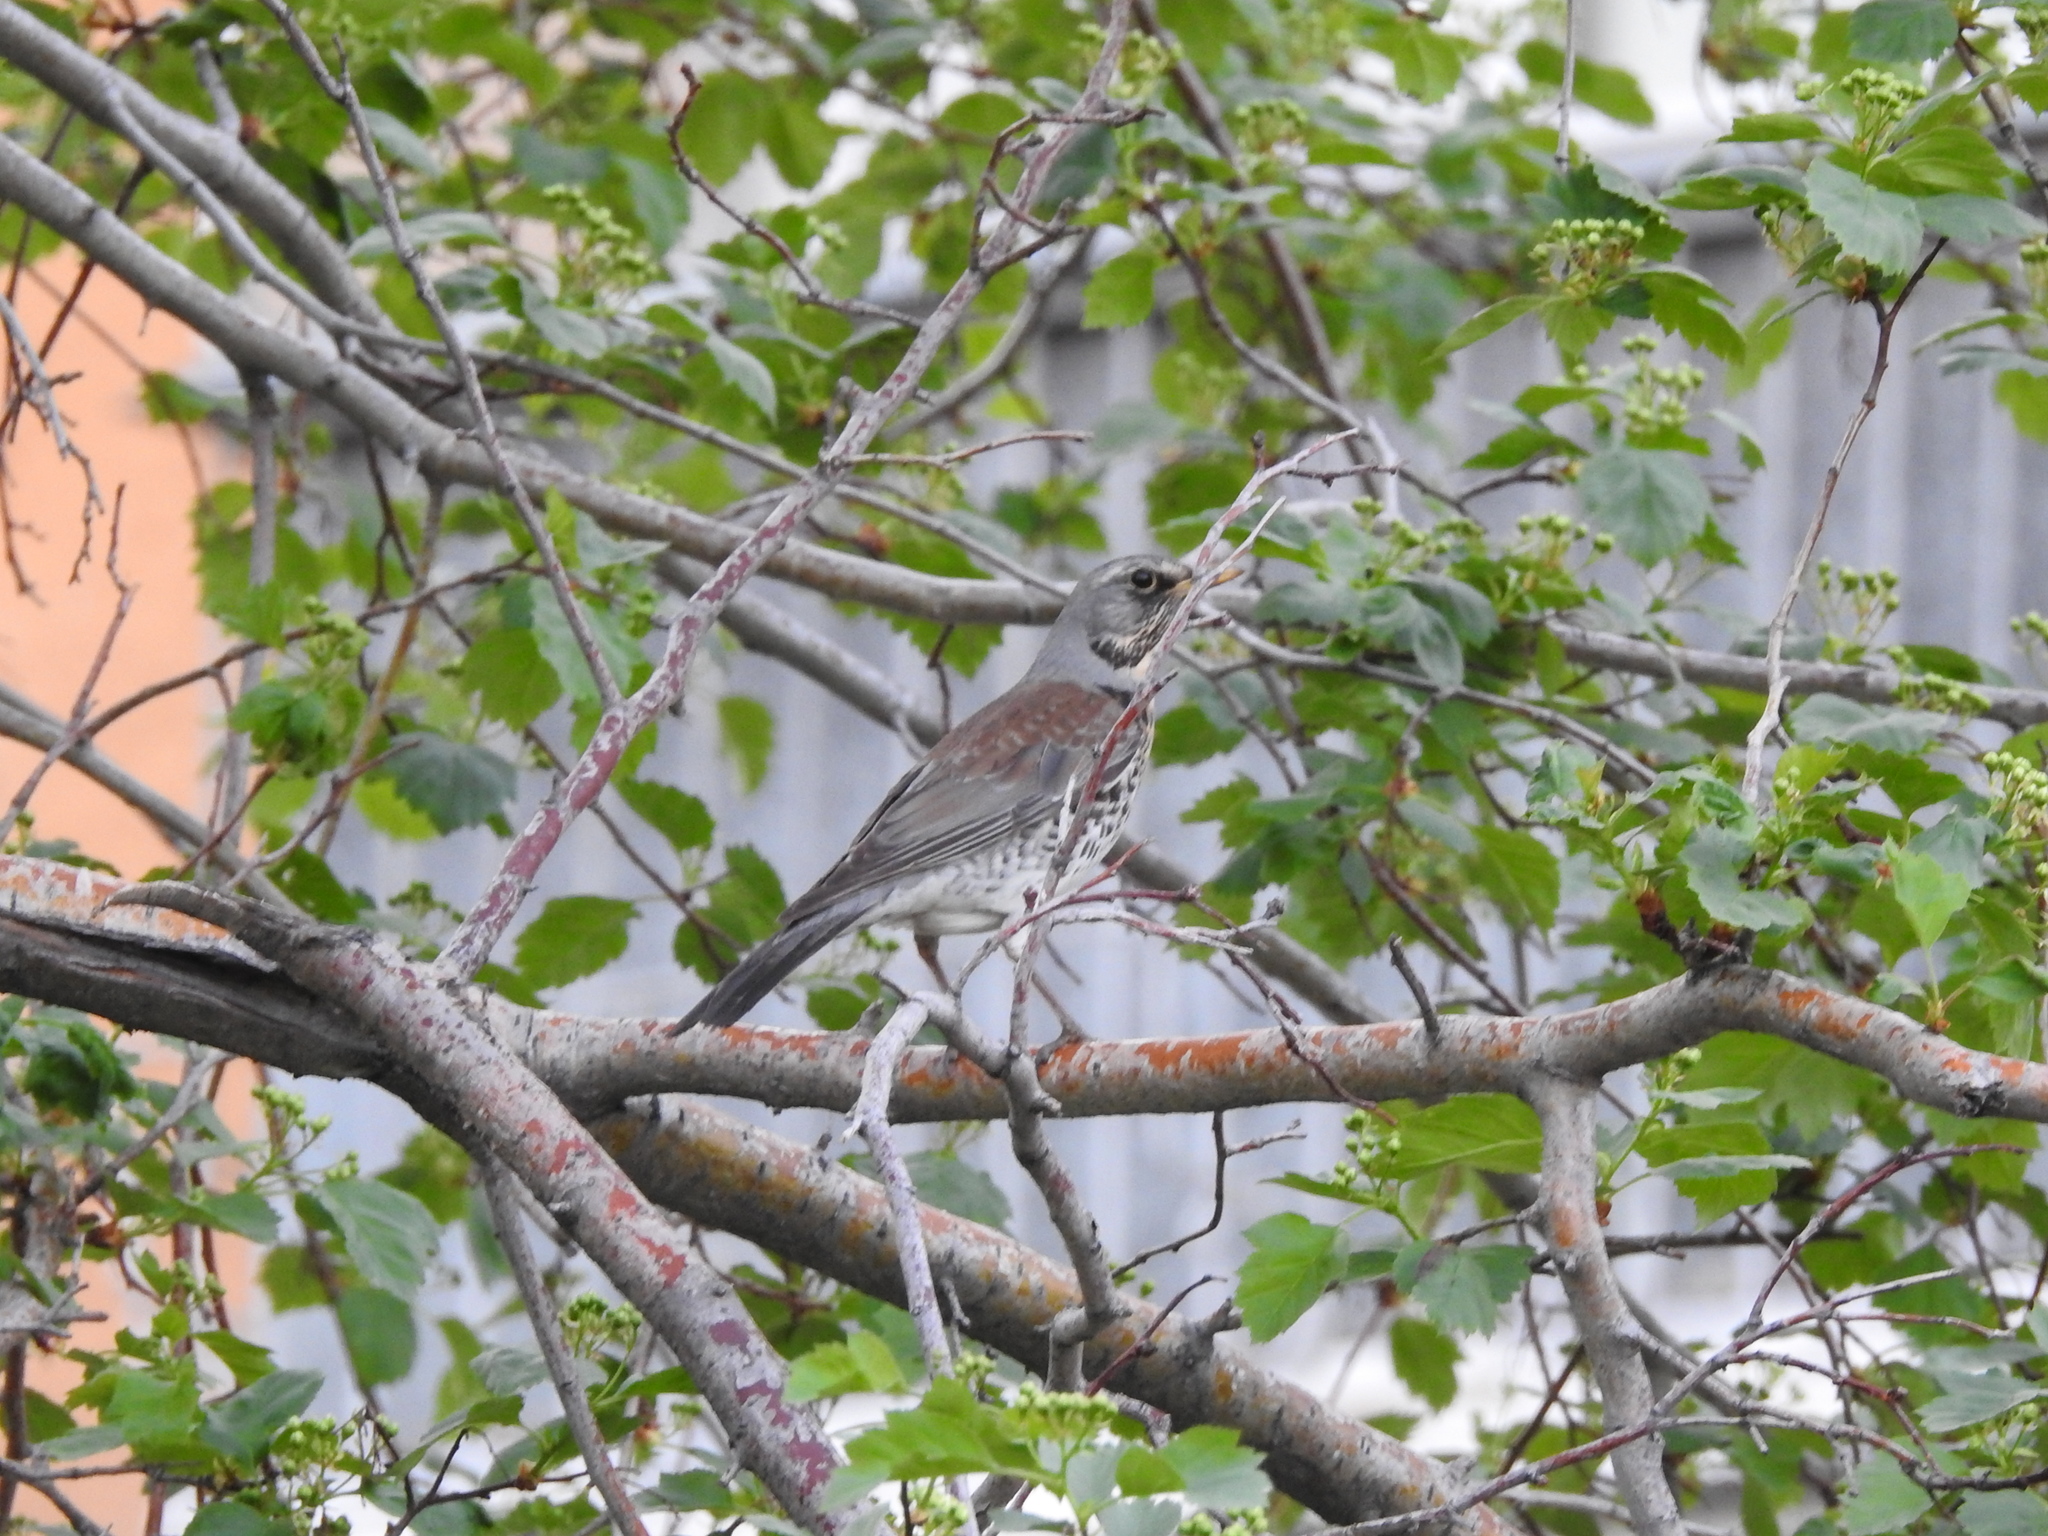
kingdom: Animalia
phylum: Chordata
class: Aves
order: Passeriformes
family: Turdidae
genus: Turdus
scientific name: Turdus pilaris
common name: Fieldfare
